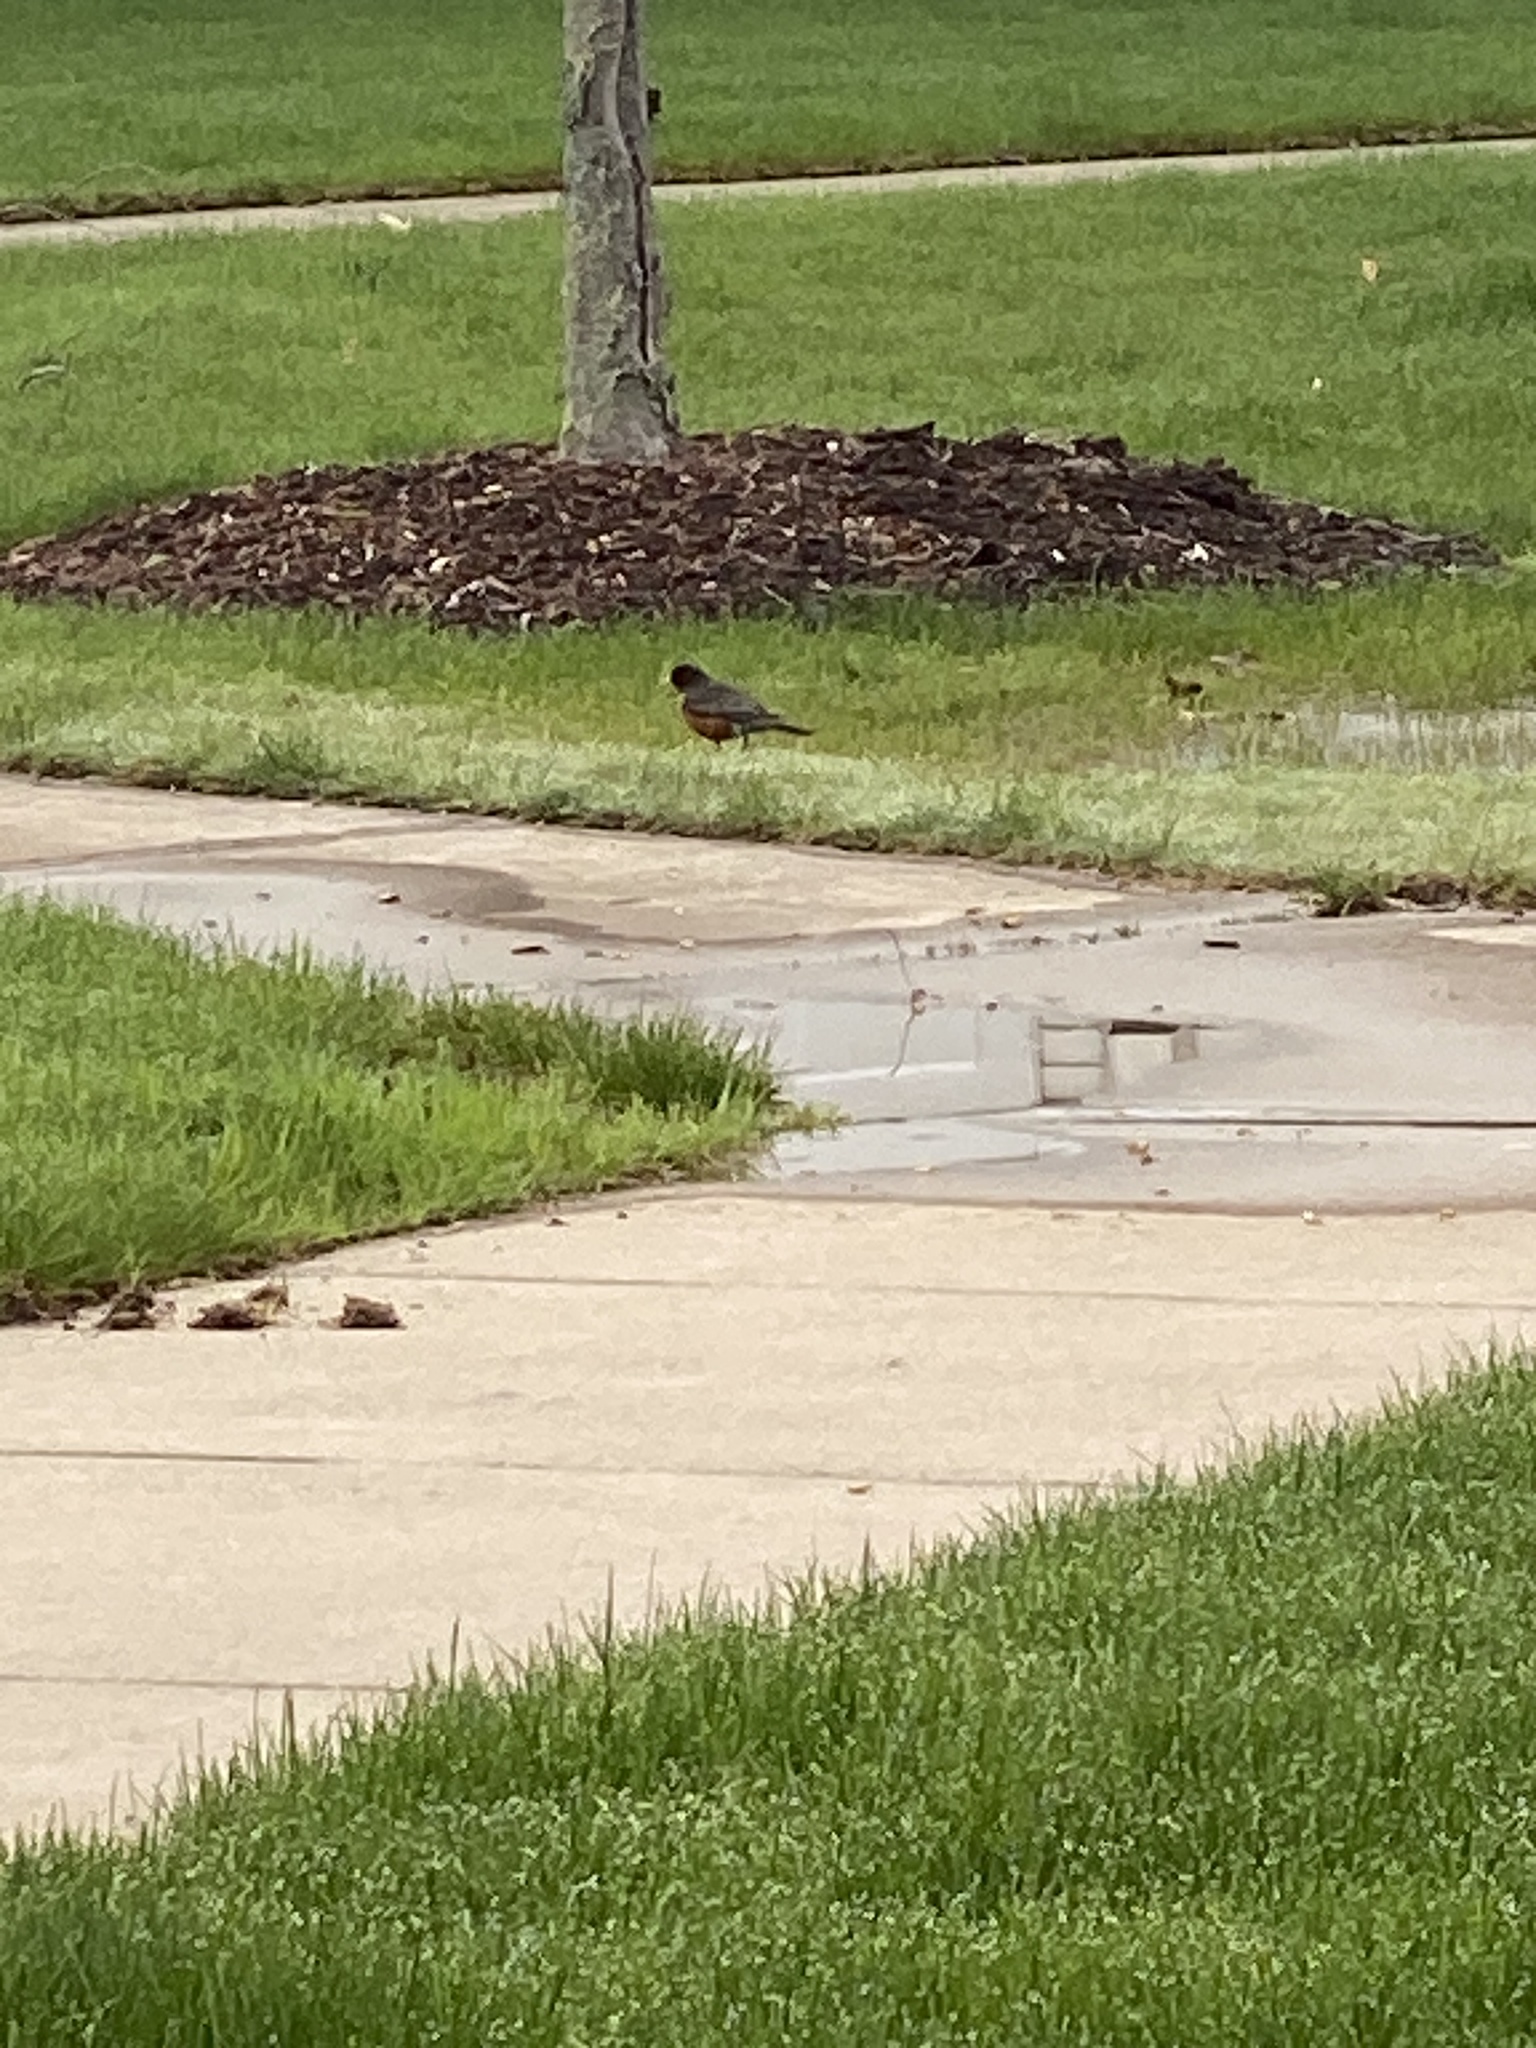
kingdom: Animalia
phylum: Chordata
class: Aves
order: Passeriformes
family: Turdidae
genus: Turdus
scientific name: Turdus migratorius
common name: American robin
